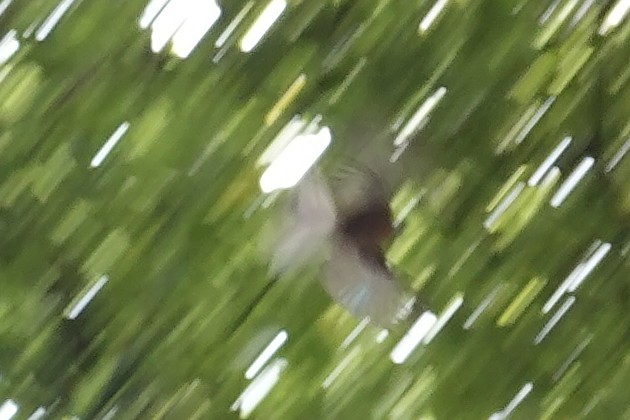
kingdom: Animalia
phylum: Chordata
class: Aves
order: Passeriformes
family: Rhipiduridae
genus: Rhipidura
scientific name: Rhipidura fuliginosa
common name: New zealand fantail
